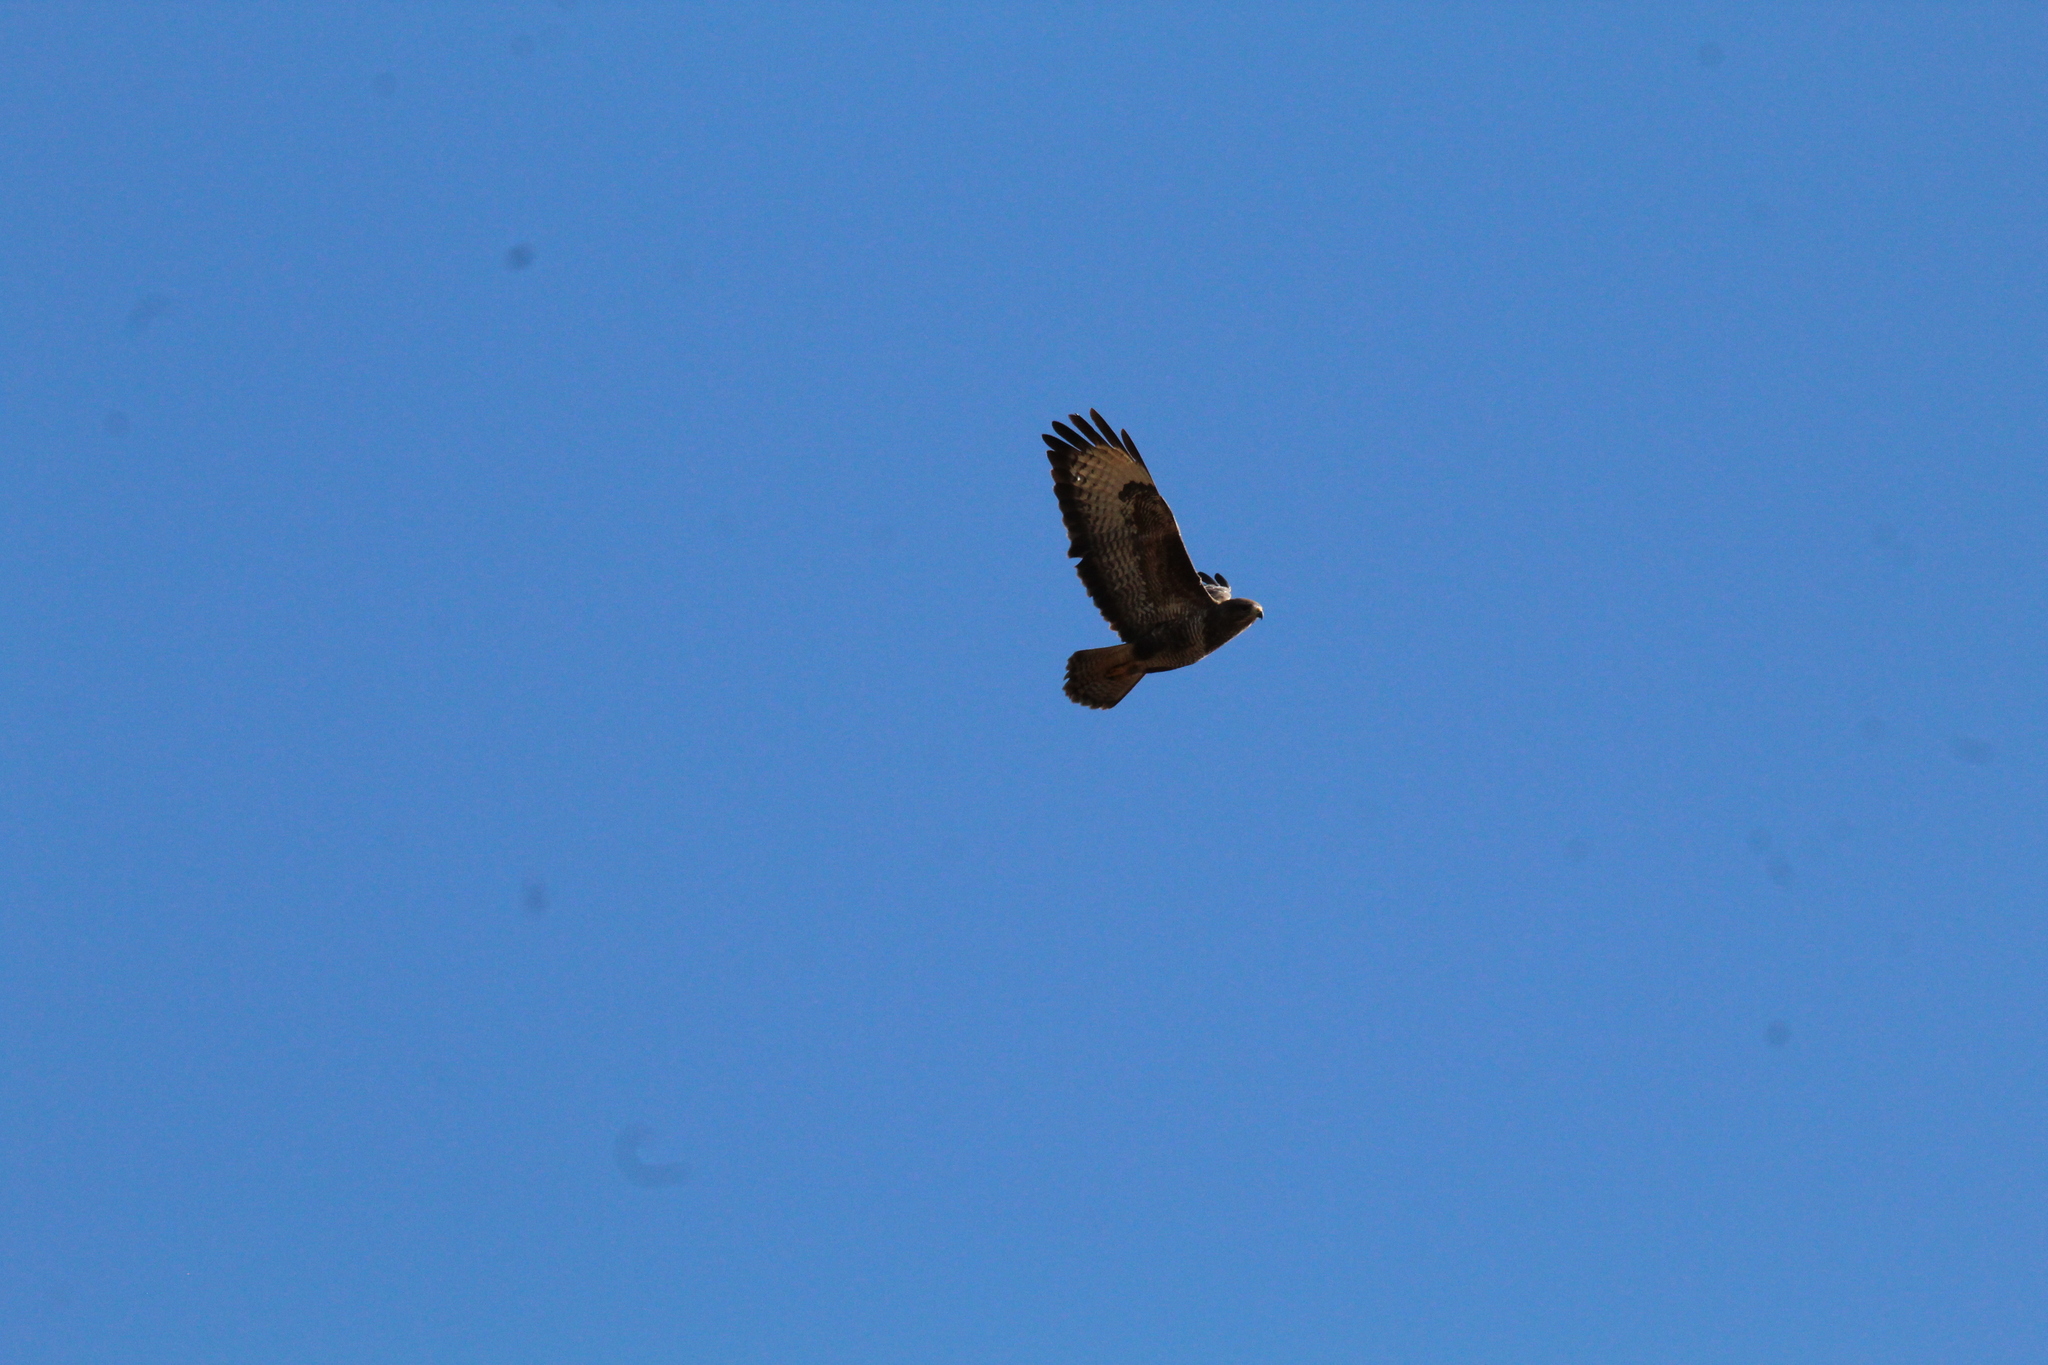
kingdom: Animalia
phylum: Chordata
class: Aves
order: Accipitriformes
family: Accipitridae
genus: Buteo
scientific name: Buteo buteo
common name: Common buzzard
